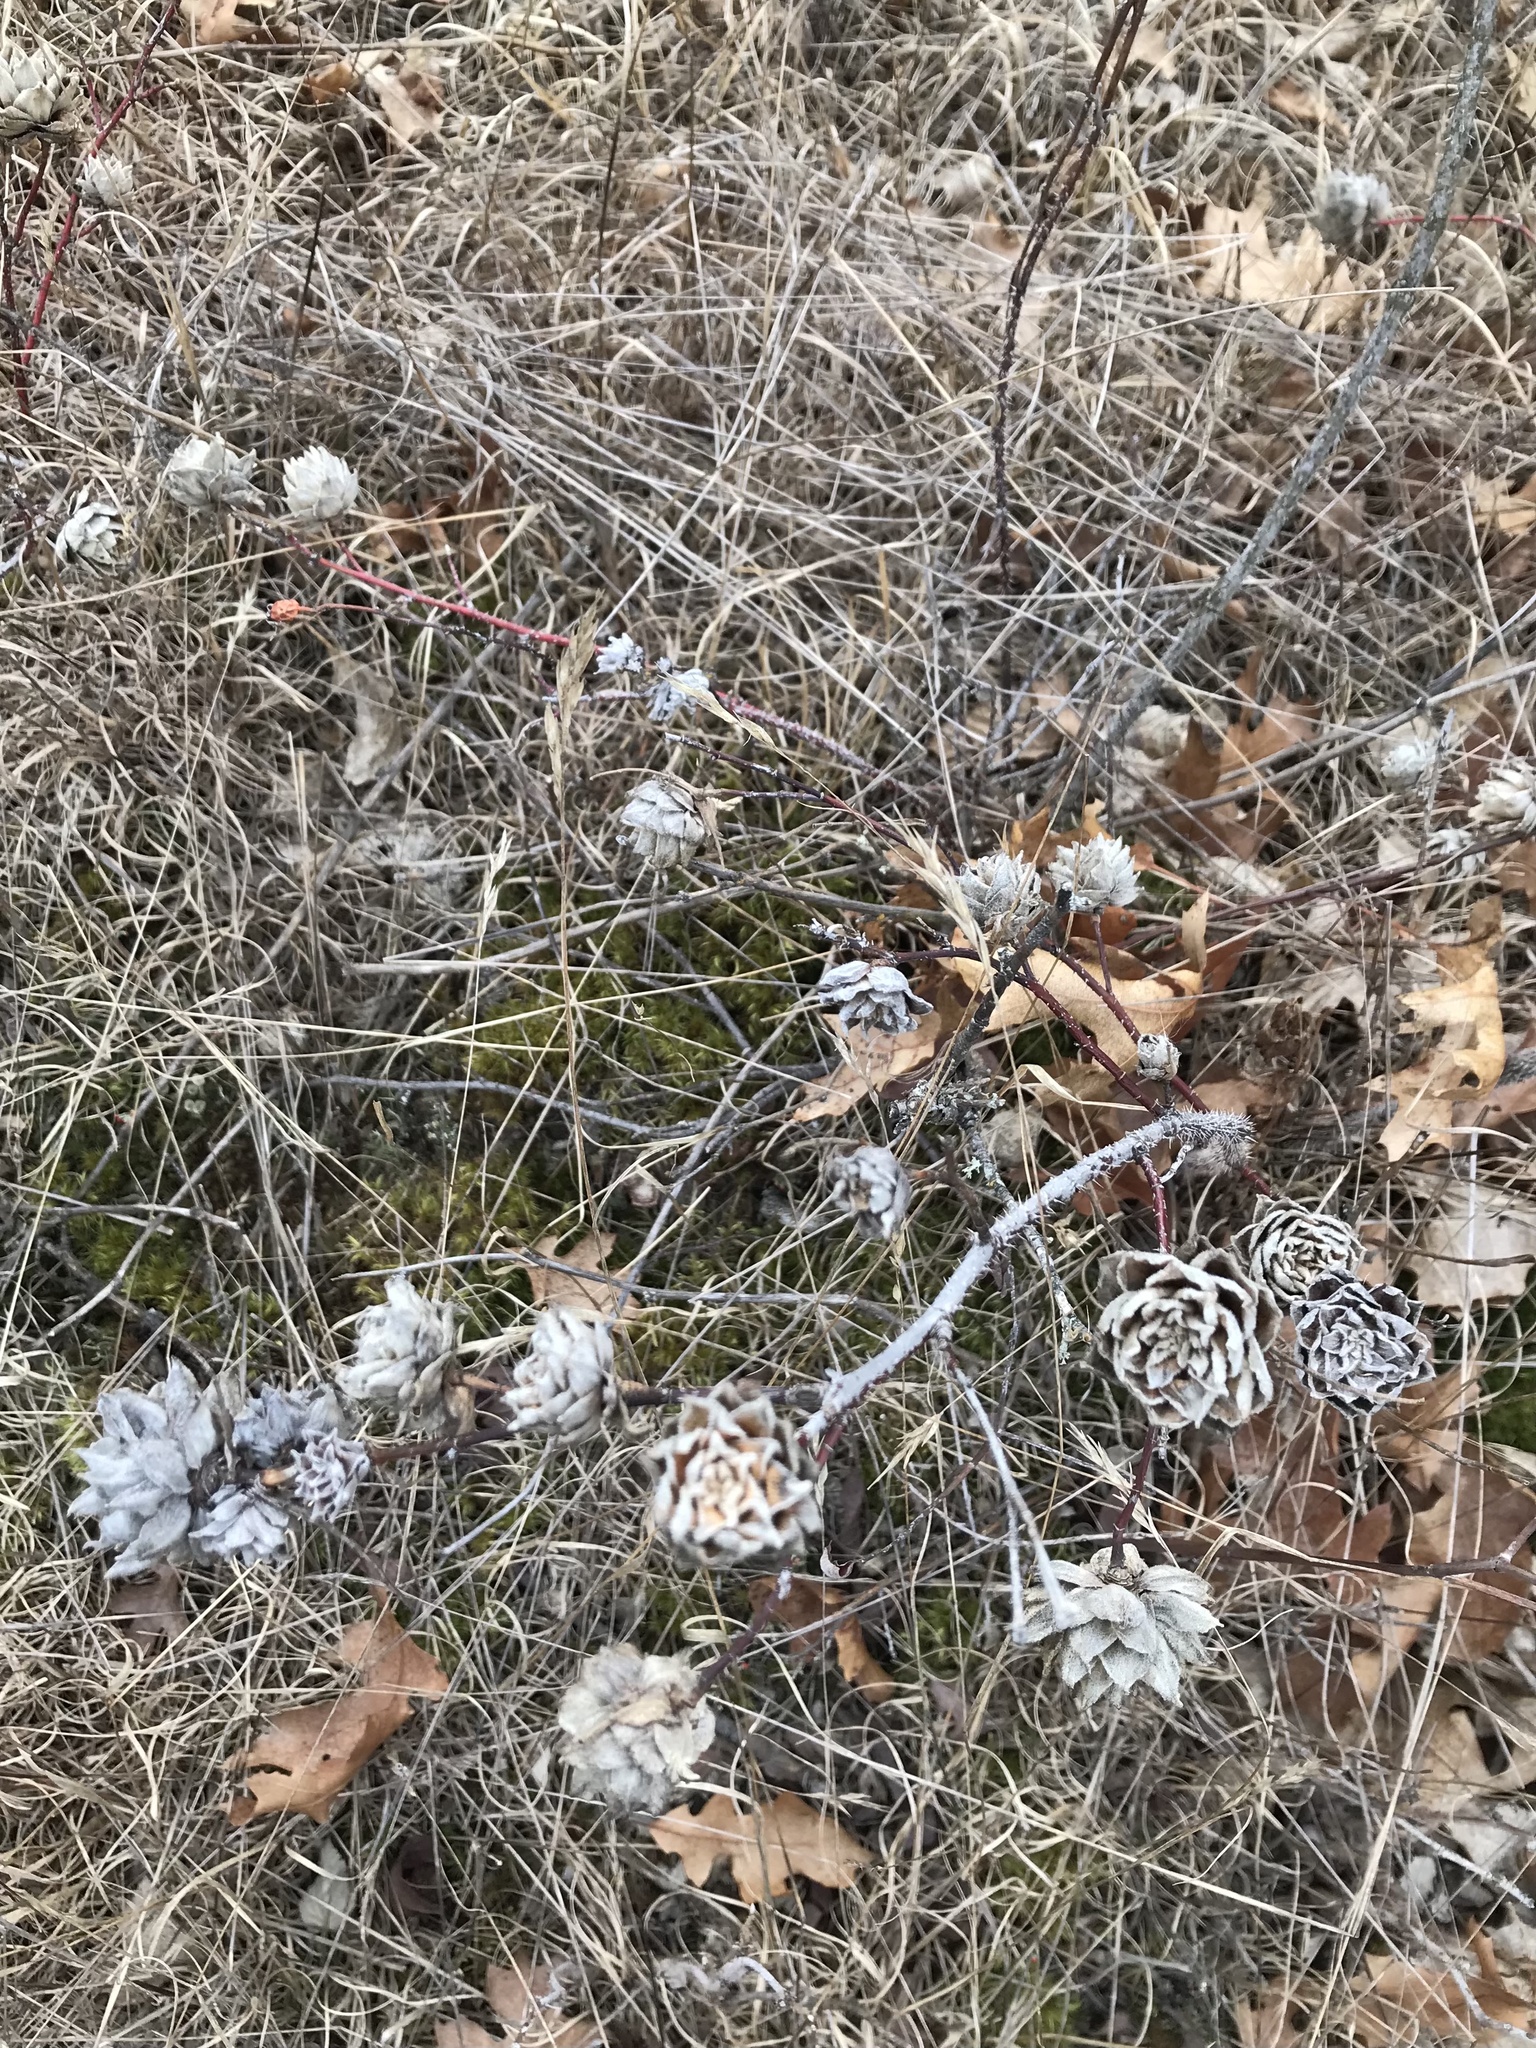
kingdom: Animalia
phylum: Arthropoda
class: Insecta
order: Diptera
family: Cecidomyiidae
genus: Rabdophaga
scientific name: Rabdophaga rosacea
